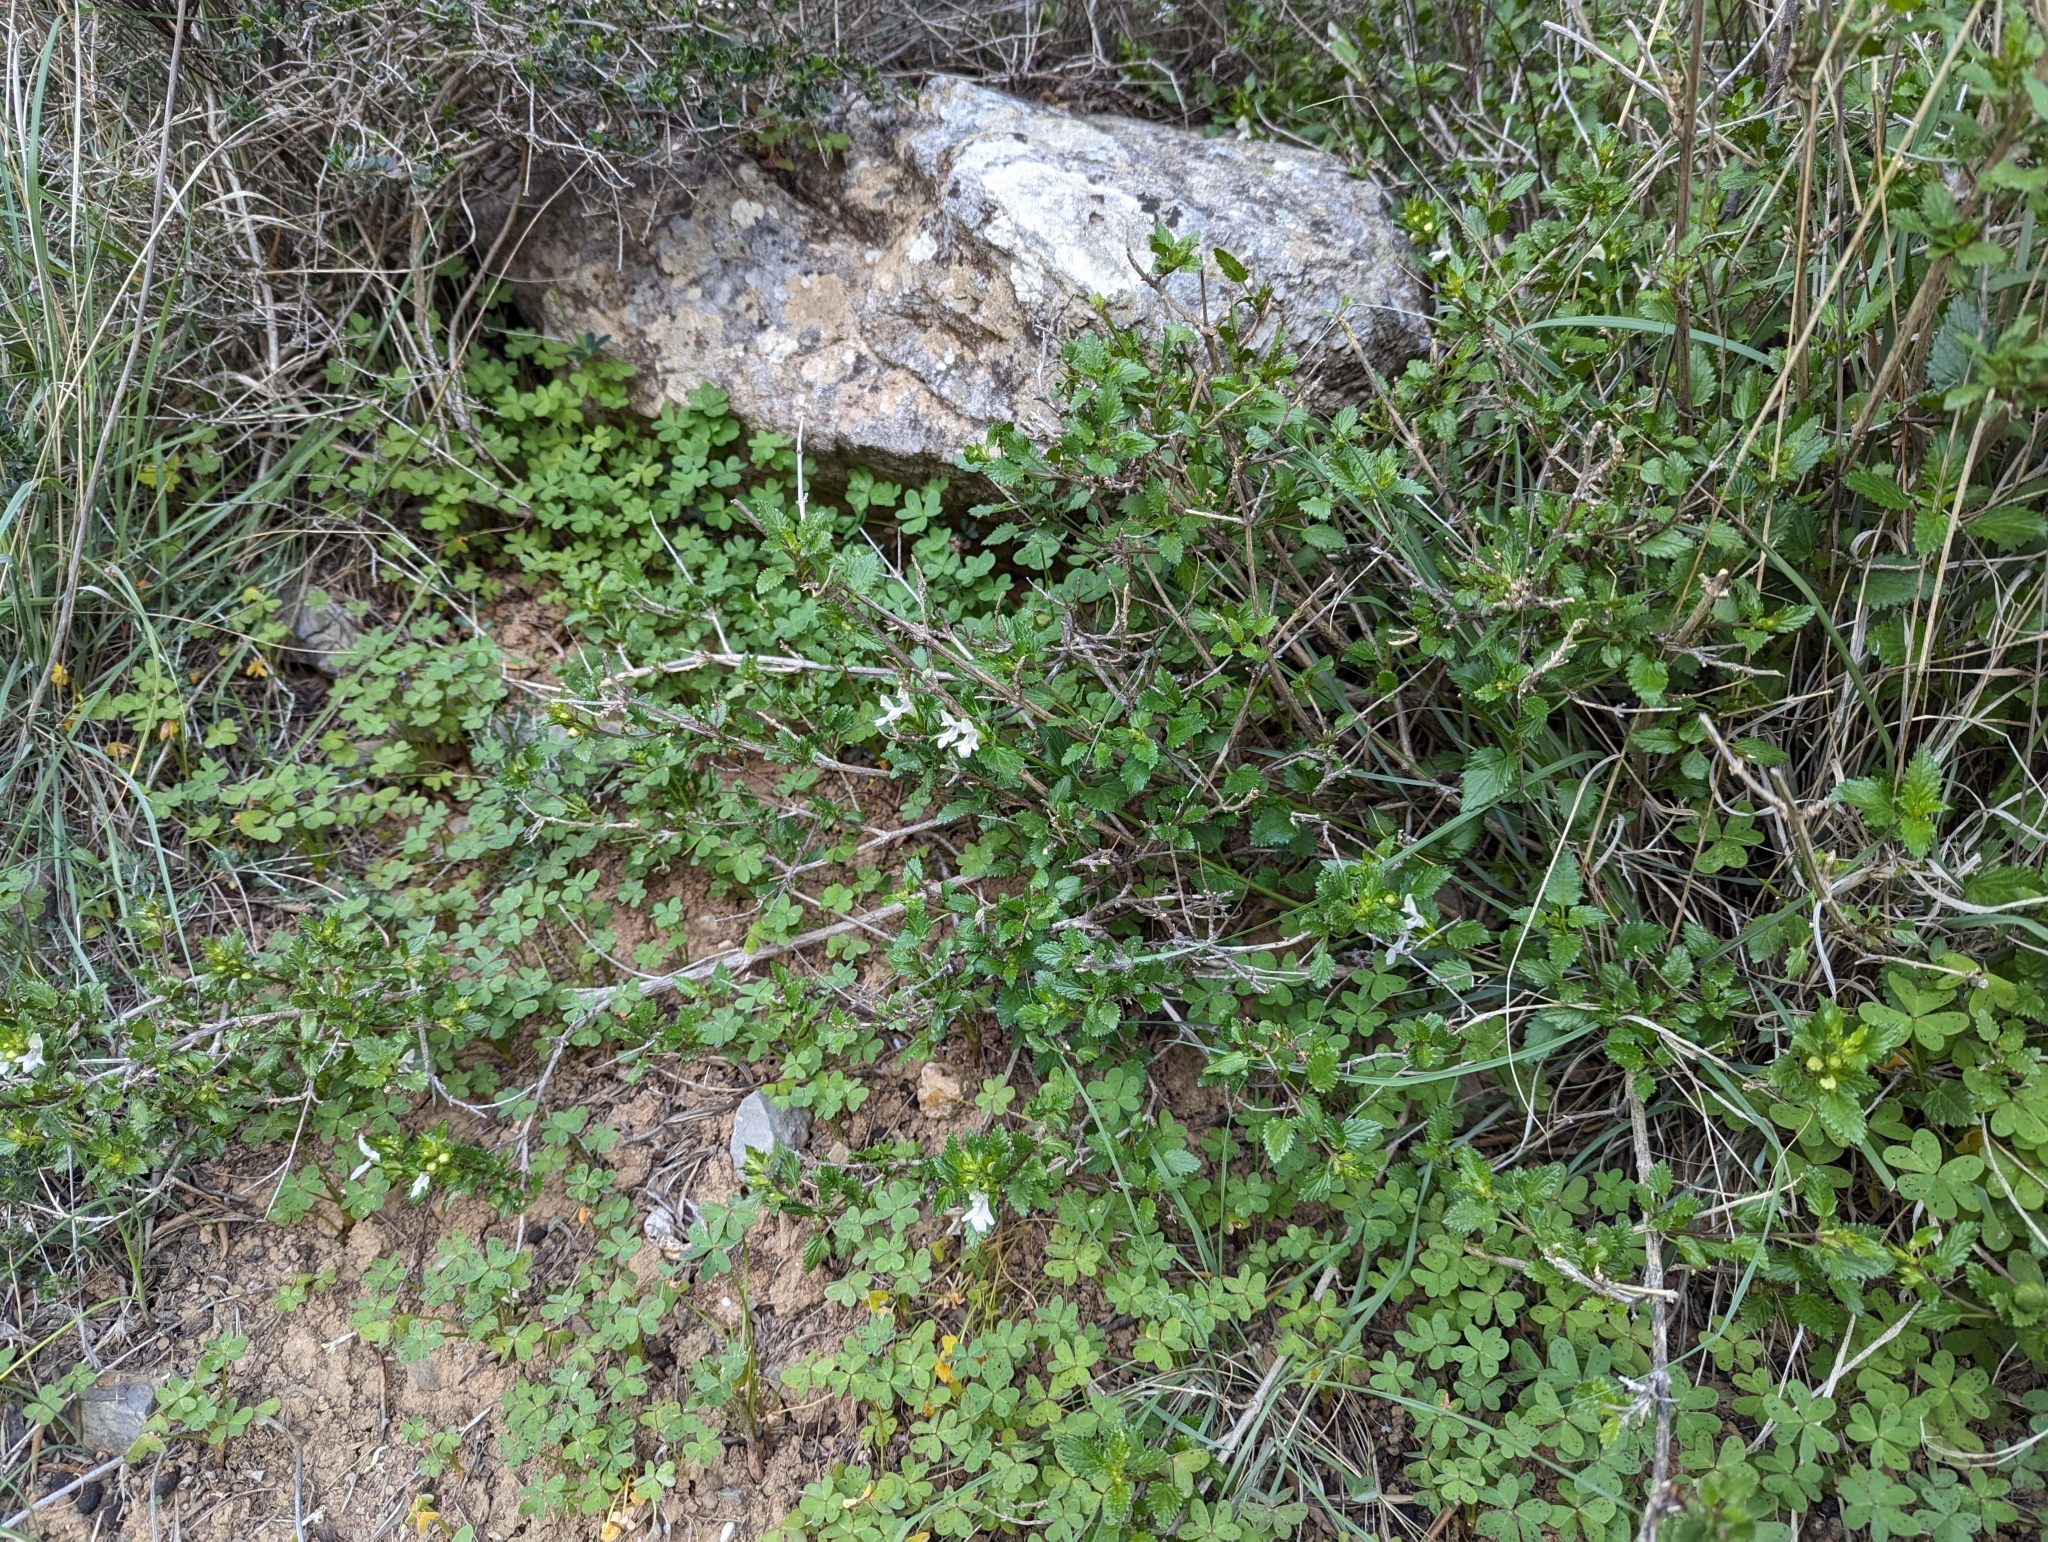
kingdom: Plantae
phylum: Tracheophyta
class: Magnoliopsida
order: Lamiales
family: Lamiaceae
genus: Prasium
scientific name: Prasium majus
